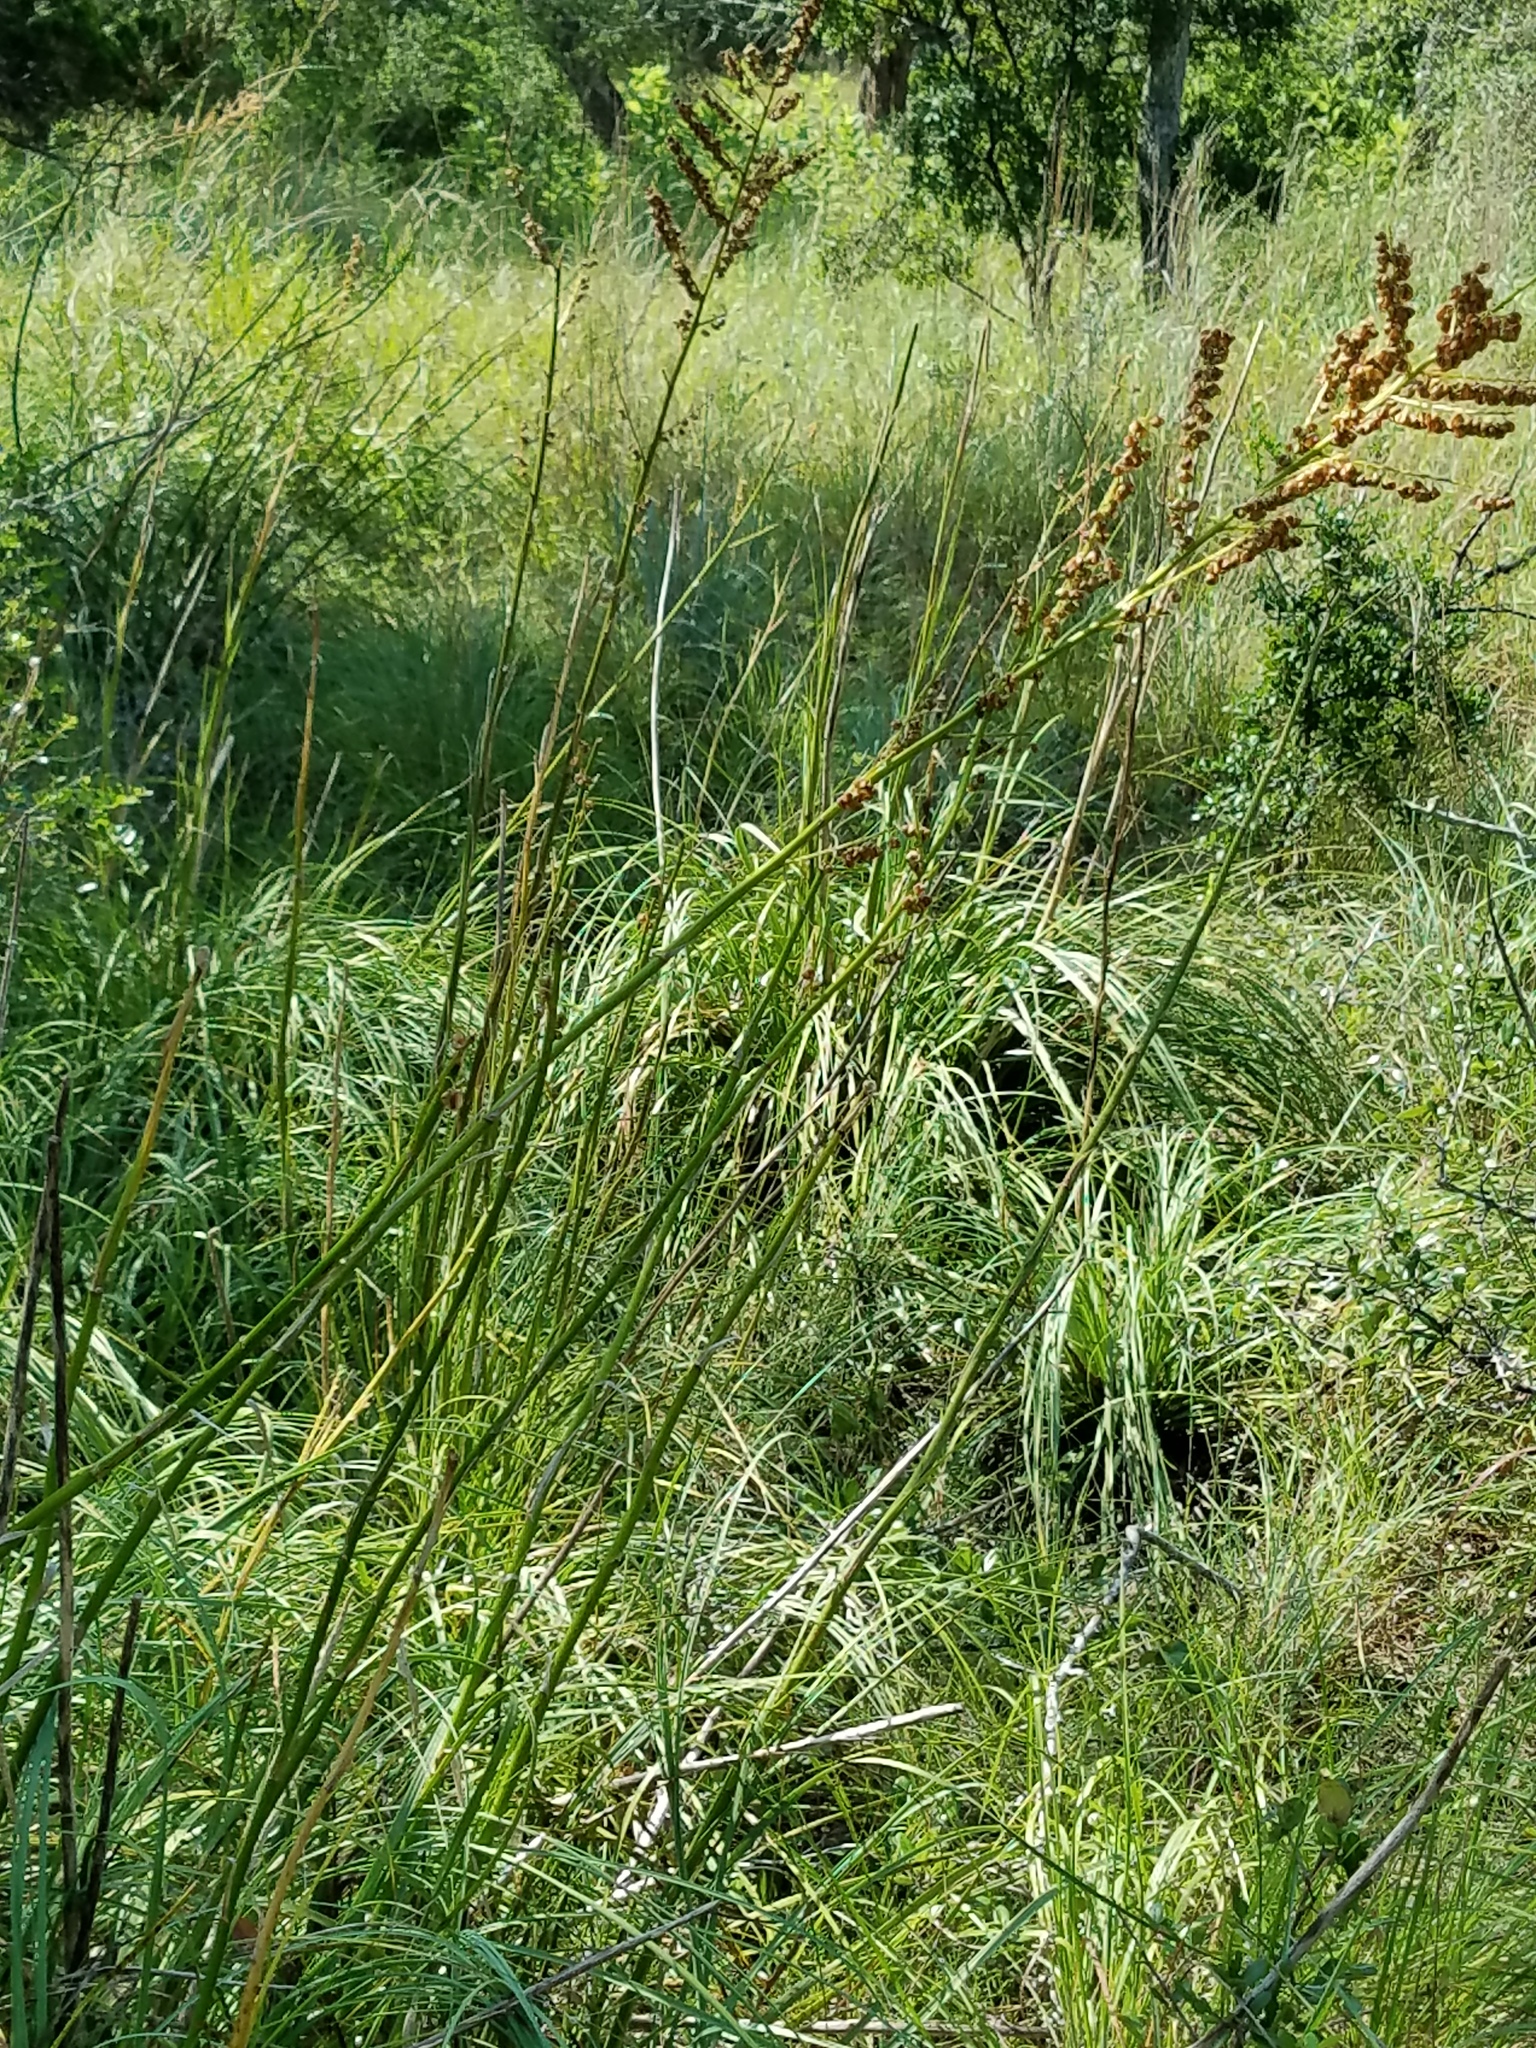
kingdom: Plantae
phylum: Tracheophyta
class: Liliopsida
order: Asparagales
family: Asparagaceae
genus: Nolina
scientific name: Nolina lindheimeriana
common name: Lindheimer's bear-grass
